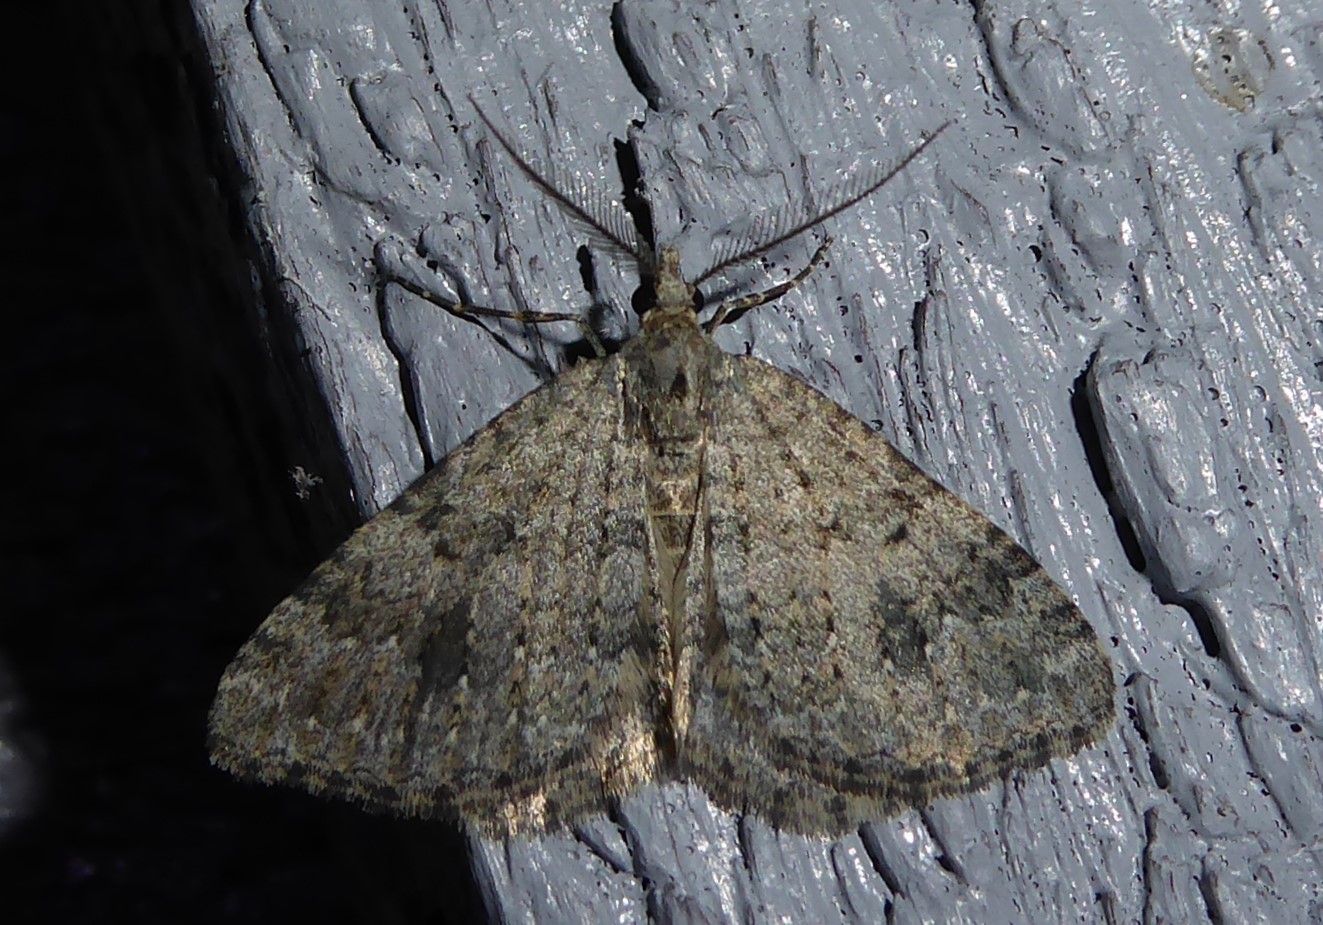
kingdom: Animalia
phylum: Arthropoda
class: Insecta
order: Lepidoptera
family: Geometridae
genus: Helastia
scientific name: Helastia corcularia
